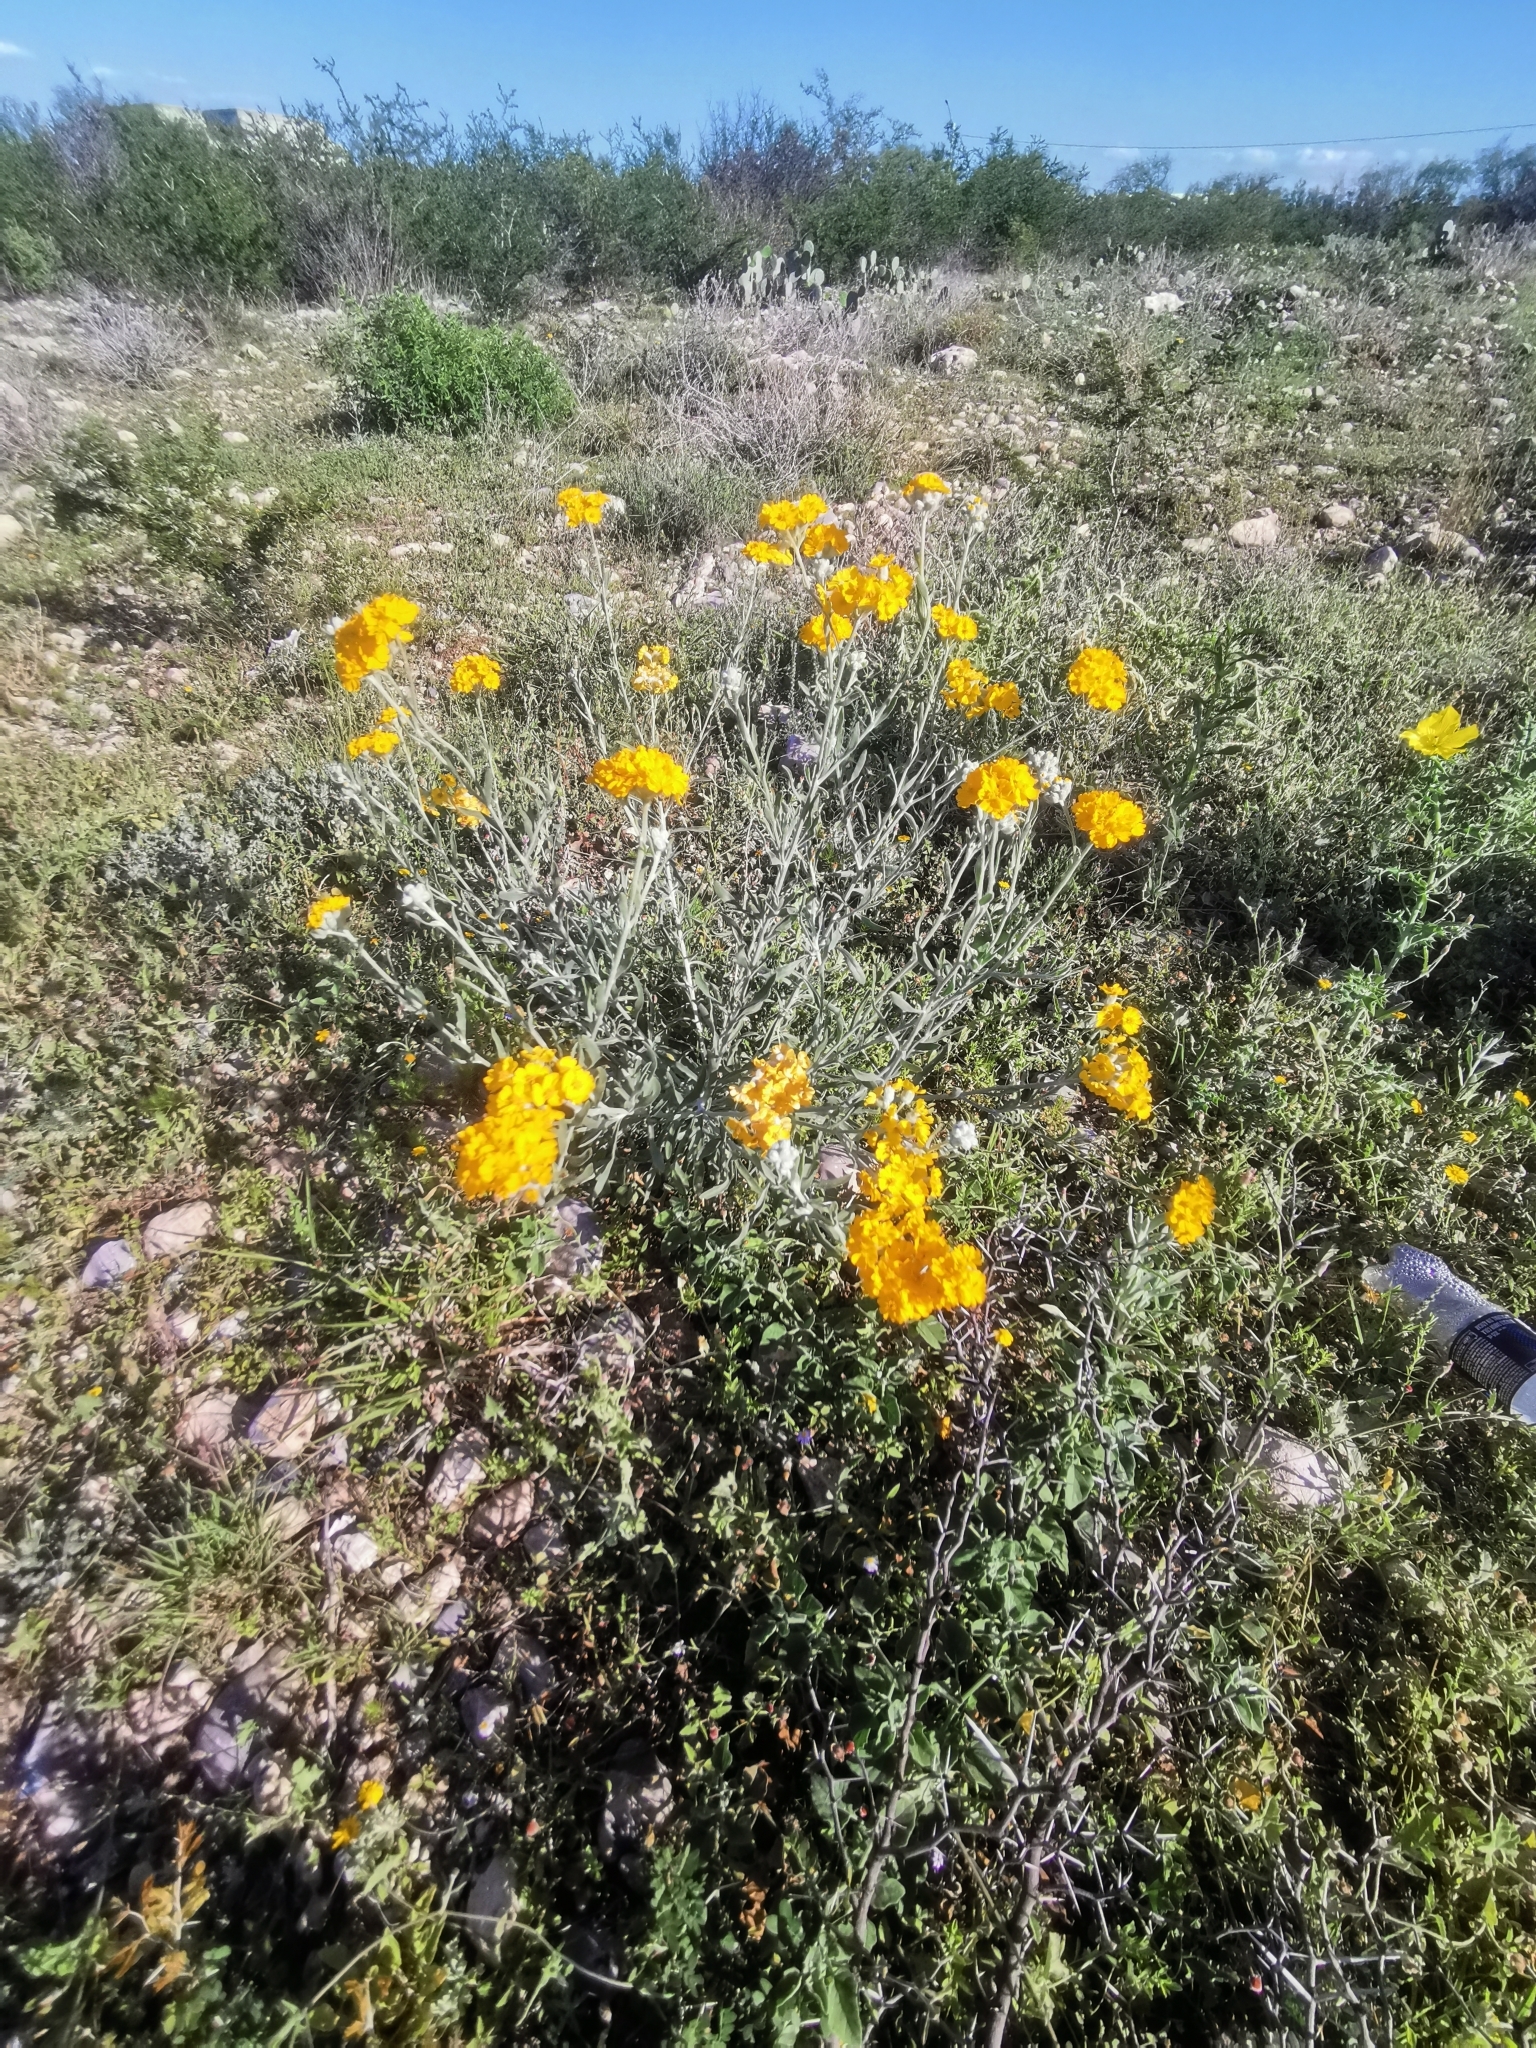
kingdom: Plantae
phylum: Tracheophyta
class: Magnoliopsida
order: Asterales
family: Asteraceae
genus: Psilostrophe
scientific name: Psilostrophe gnaphalioides
